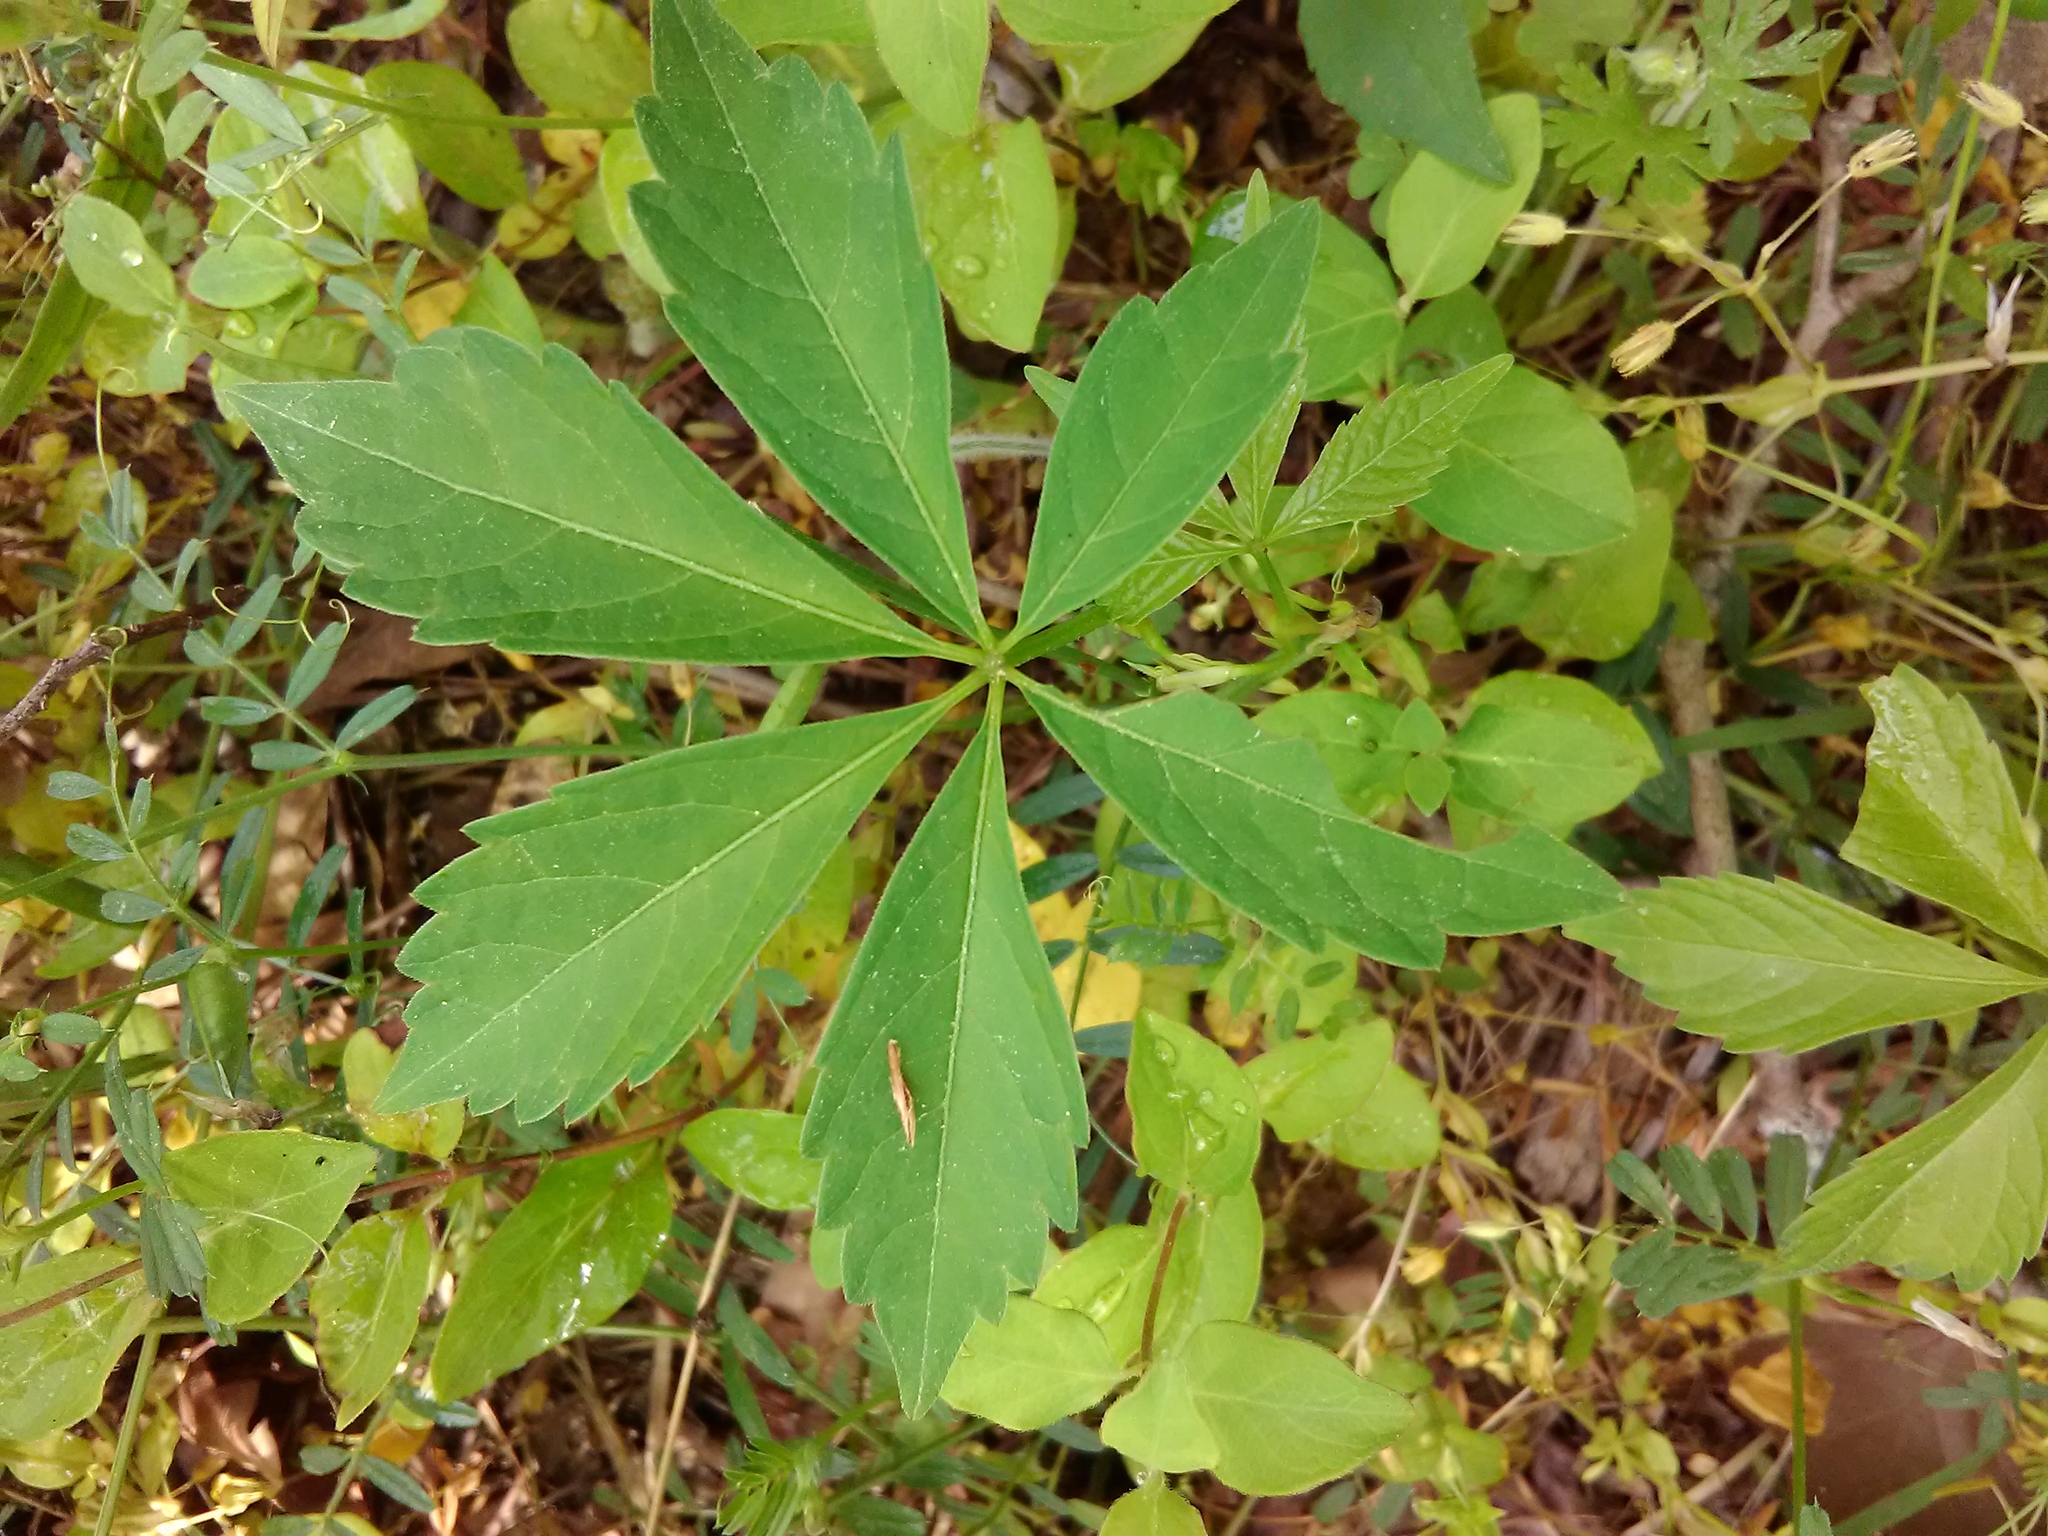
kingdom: Plantae
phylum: Tracheophyta
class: Magnoliopsida
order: Vitales
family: Vitaceae
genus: Parthenocissus
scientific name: Parthenocissus quinquefolia
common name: Virginia-creeper
